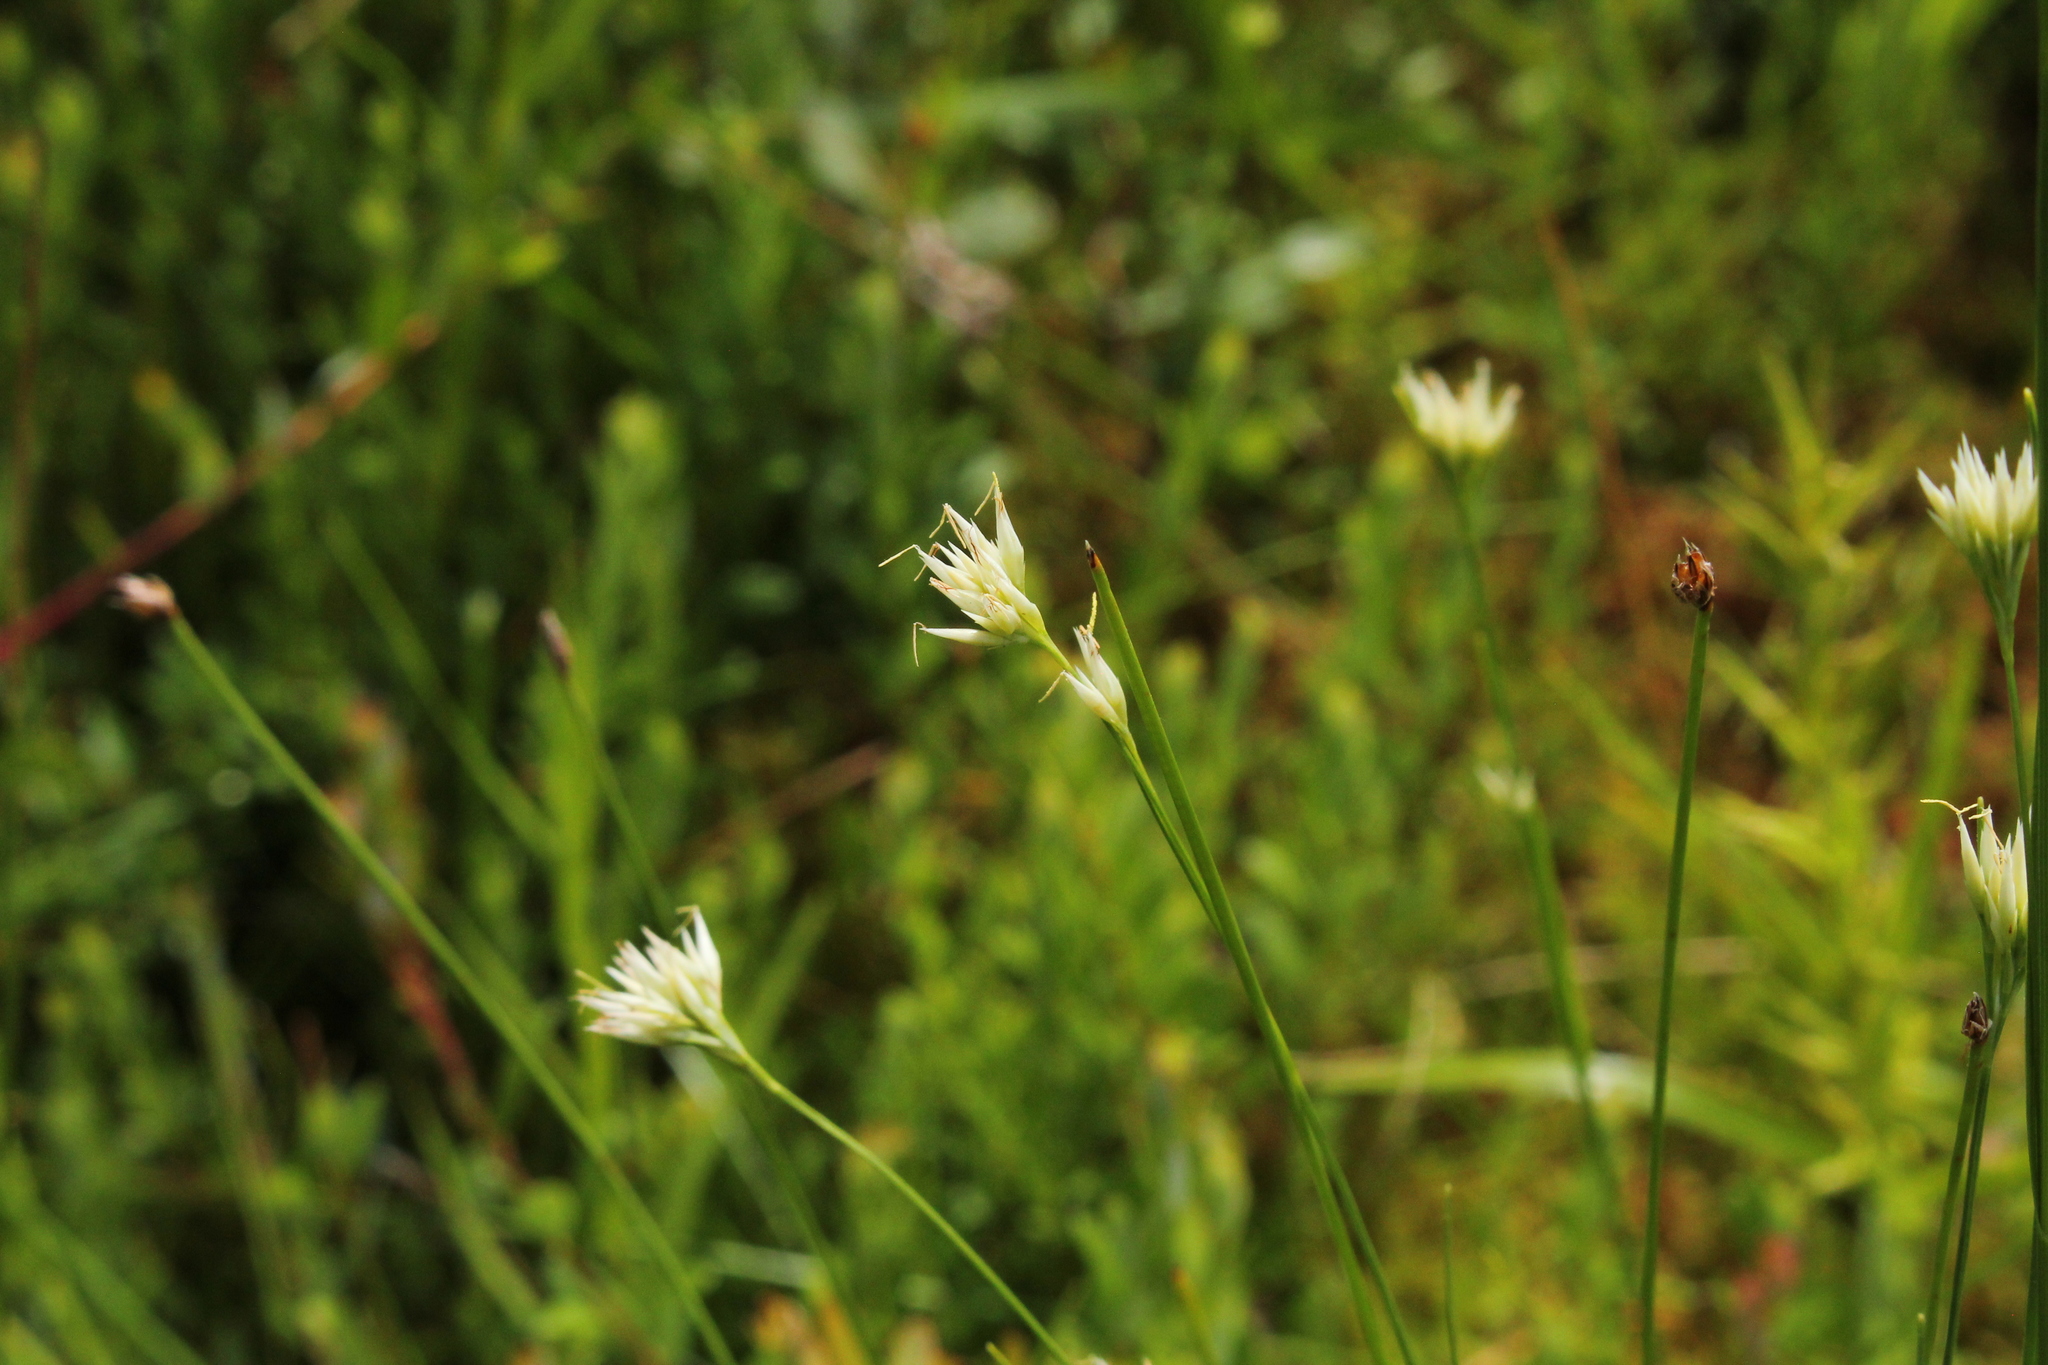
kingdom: Plantae
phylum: Tracheophyta
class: Liliopsida
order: Poales
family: Cyperaceae
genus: Rhynchospora
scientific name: Rhynchospora alba
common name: White beak-sedge
